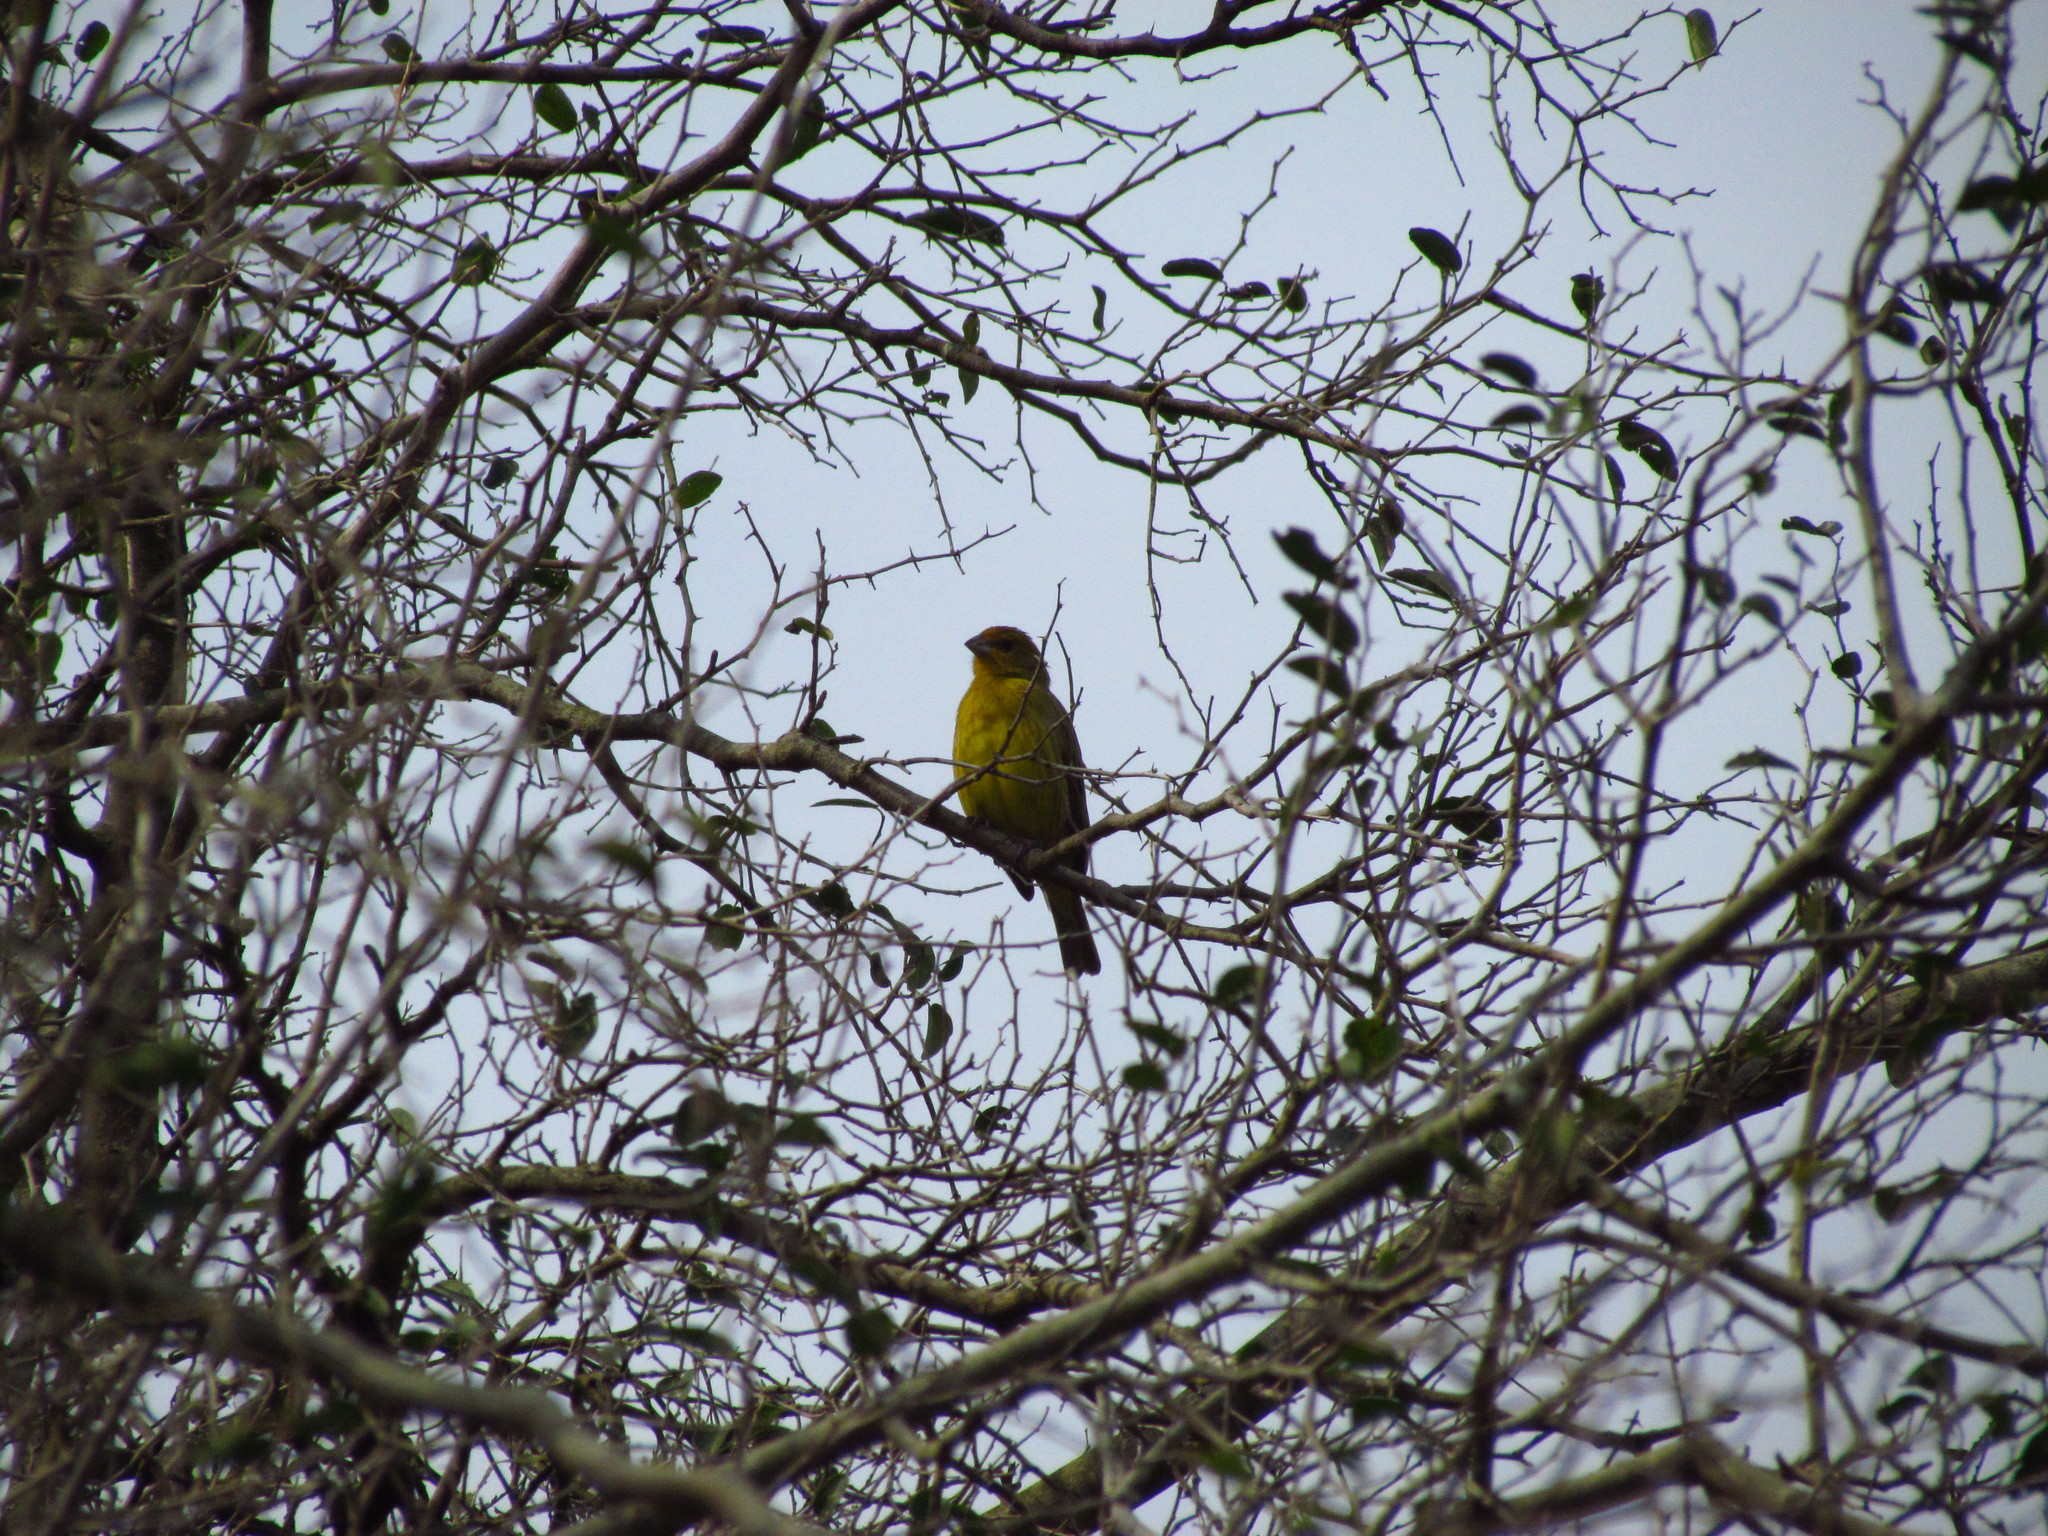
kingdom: Animalia
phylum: Chordata
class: Aves
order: Passeriformes
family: Thraupidae
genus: Sicalis
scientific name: Sicalis flaveola
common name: Saffron finch
